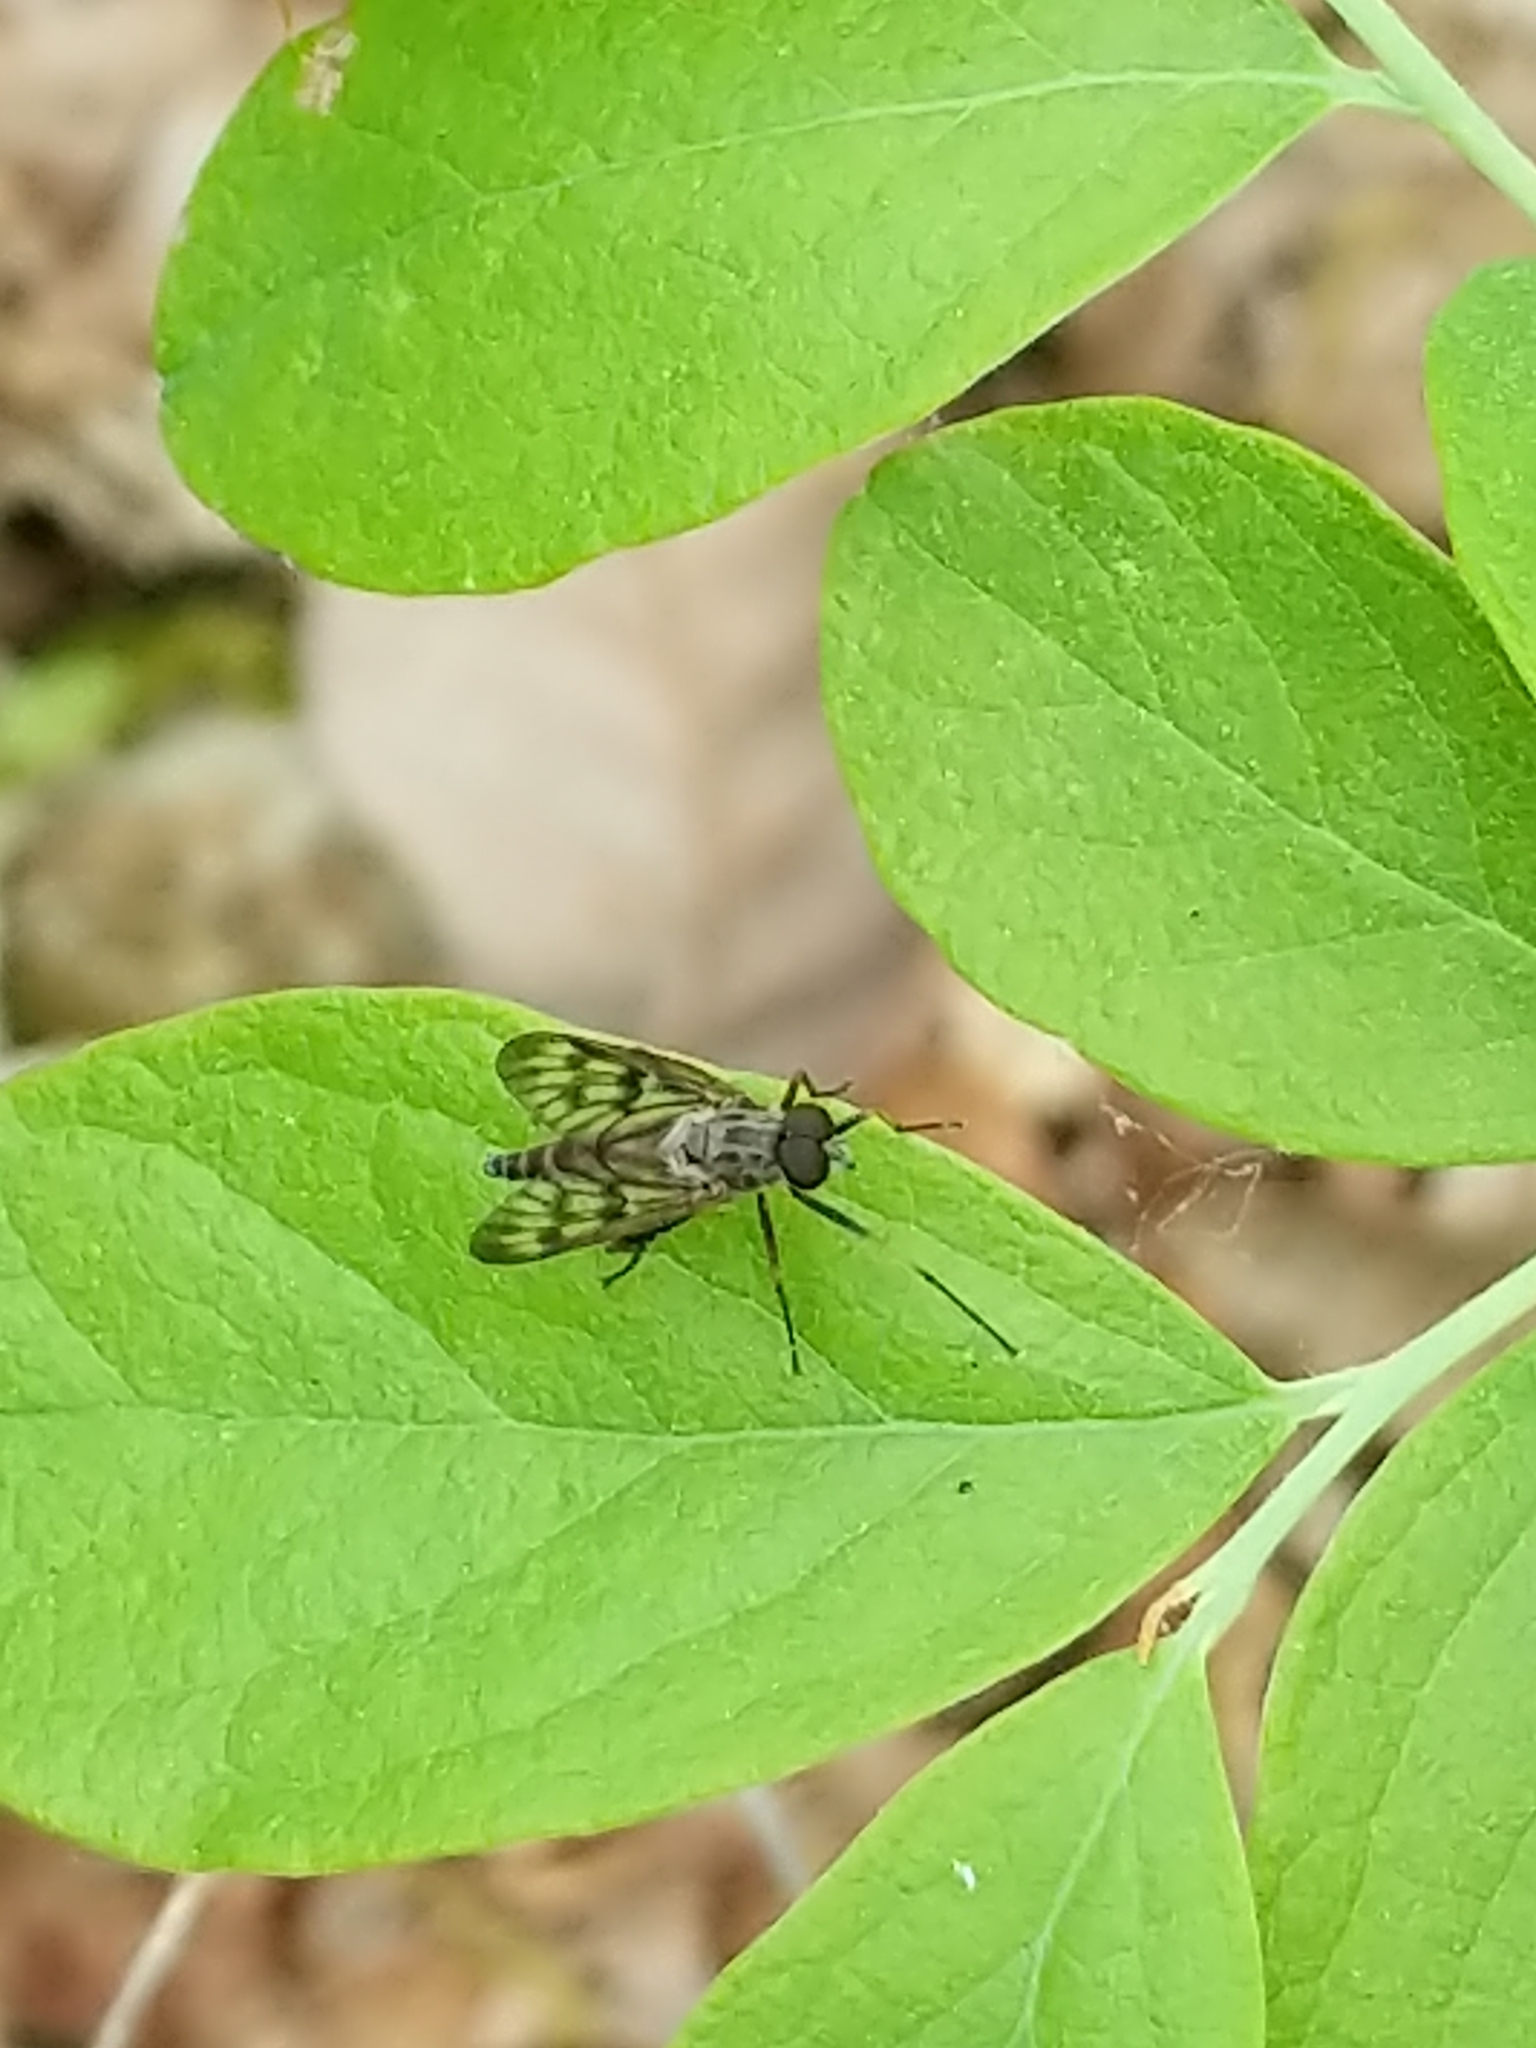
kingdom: Animalia
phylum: Arthropoda
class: Insecta
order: Diptera
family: Rhagionidae
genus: Rhagio
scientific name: Rhagio mystaceus
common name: Common snipe fly
